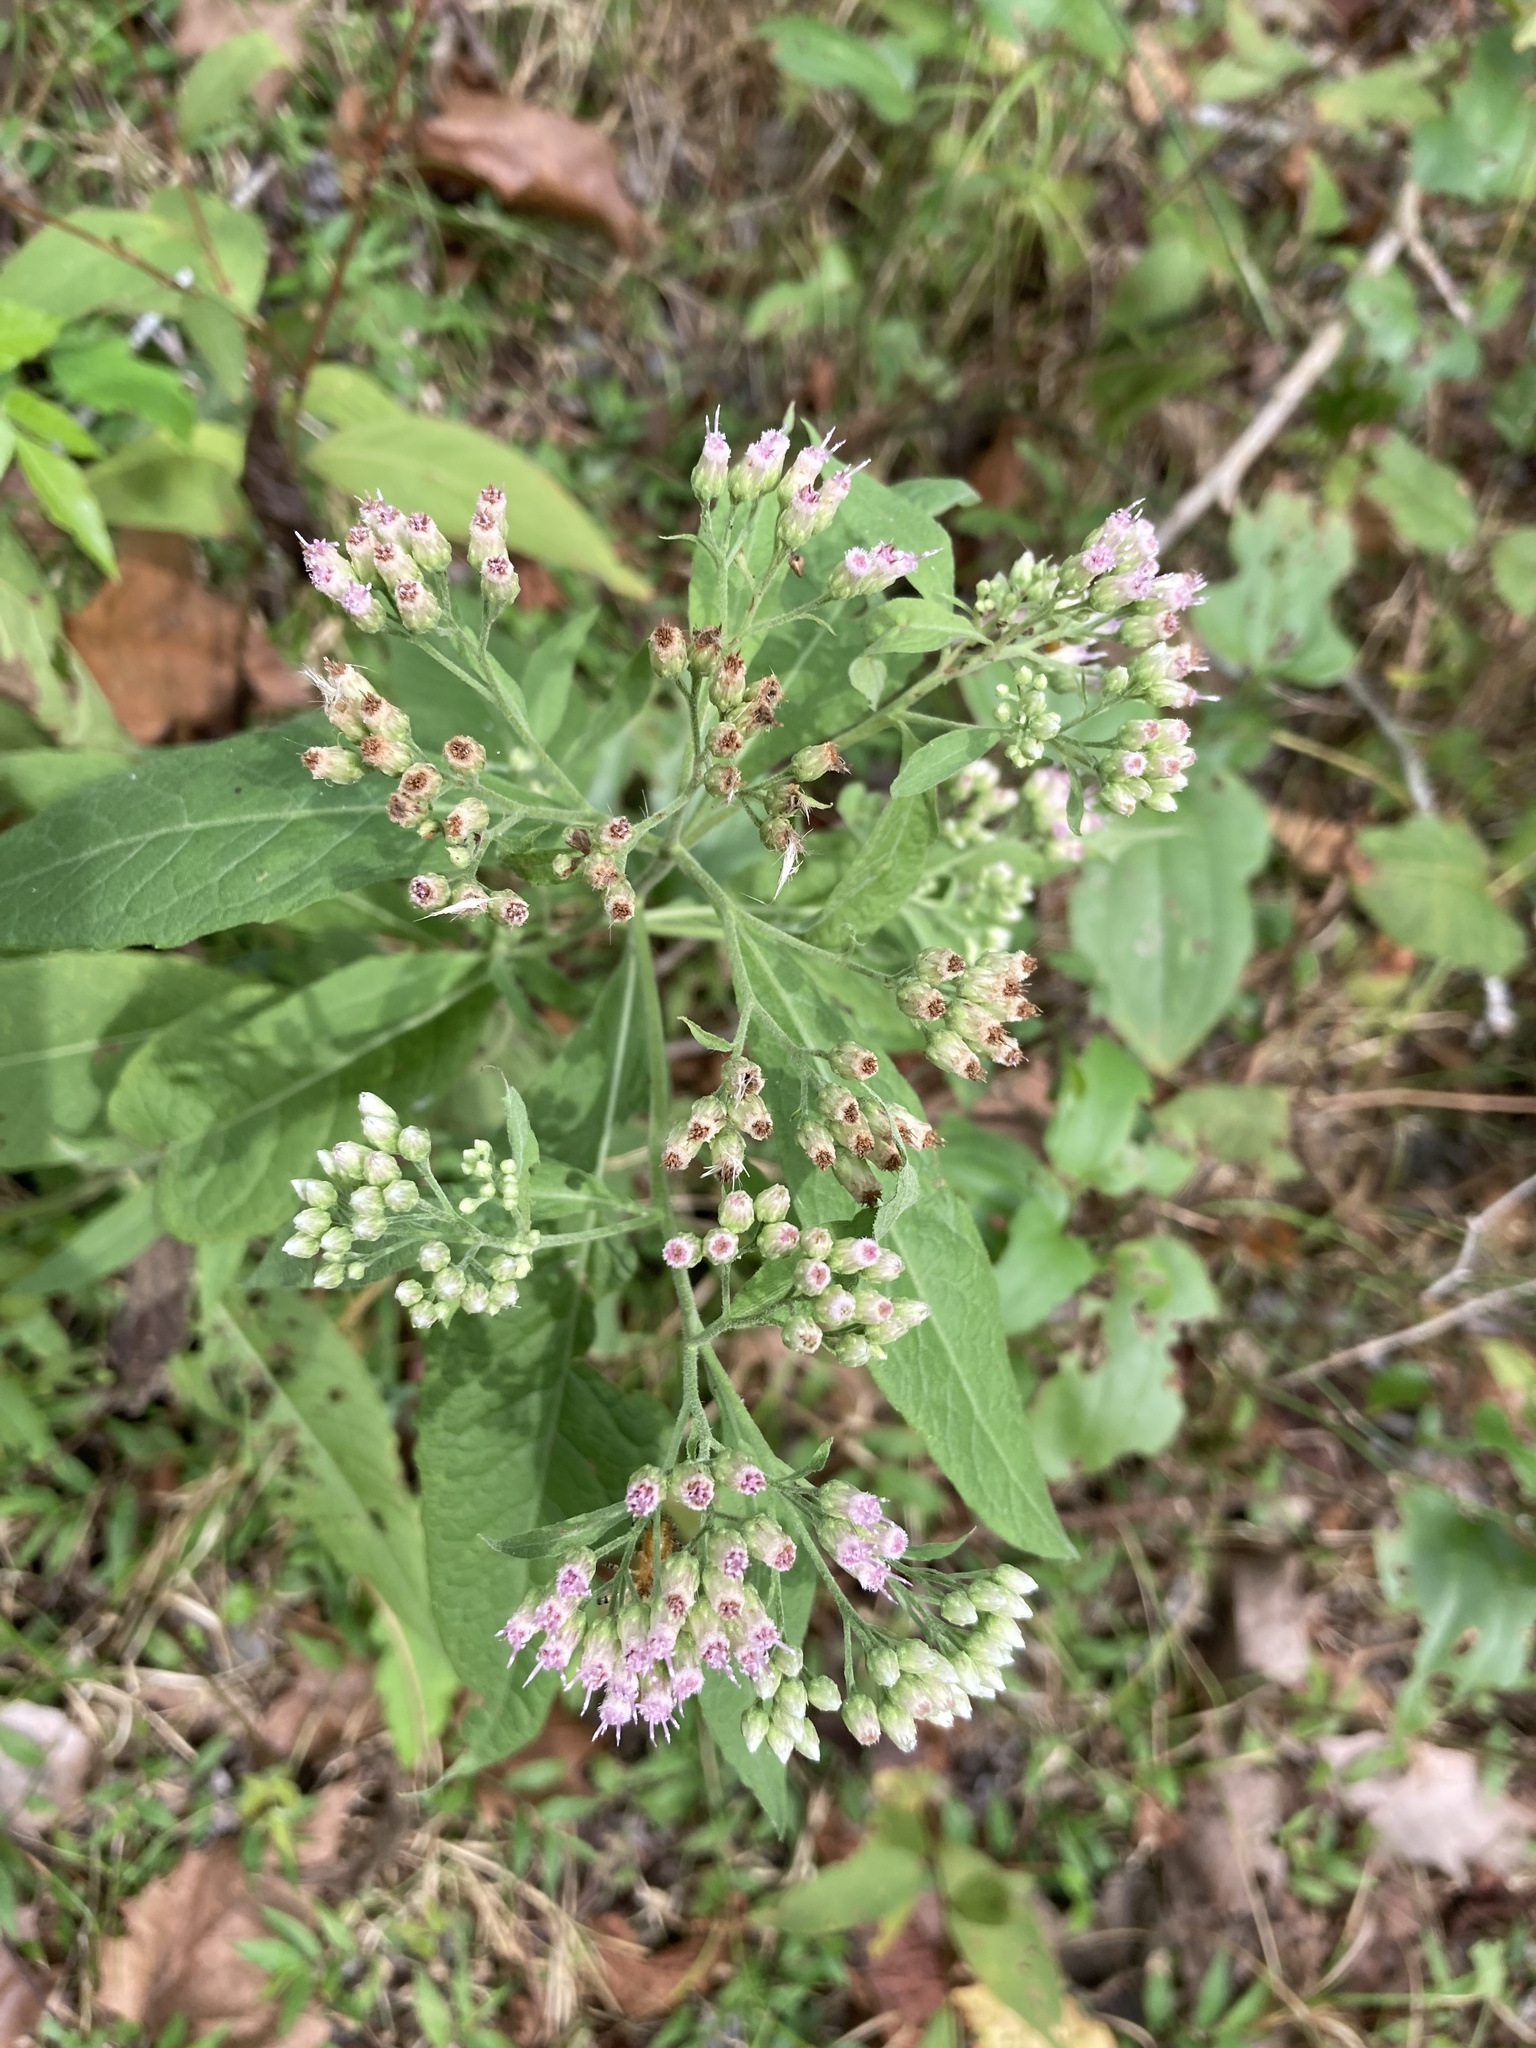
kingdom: Plantae
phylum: Tracheophyta
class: Magnoliopsida
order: Asterales
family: Asteraceae
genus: Pluchea
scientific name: Pluchea camphorata
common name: Camphor pluchea
